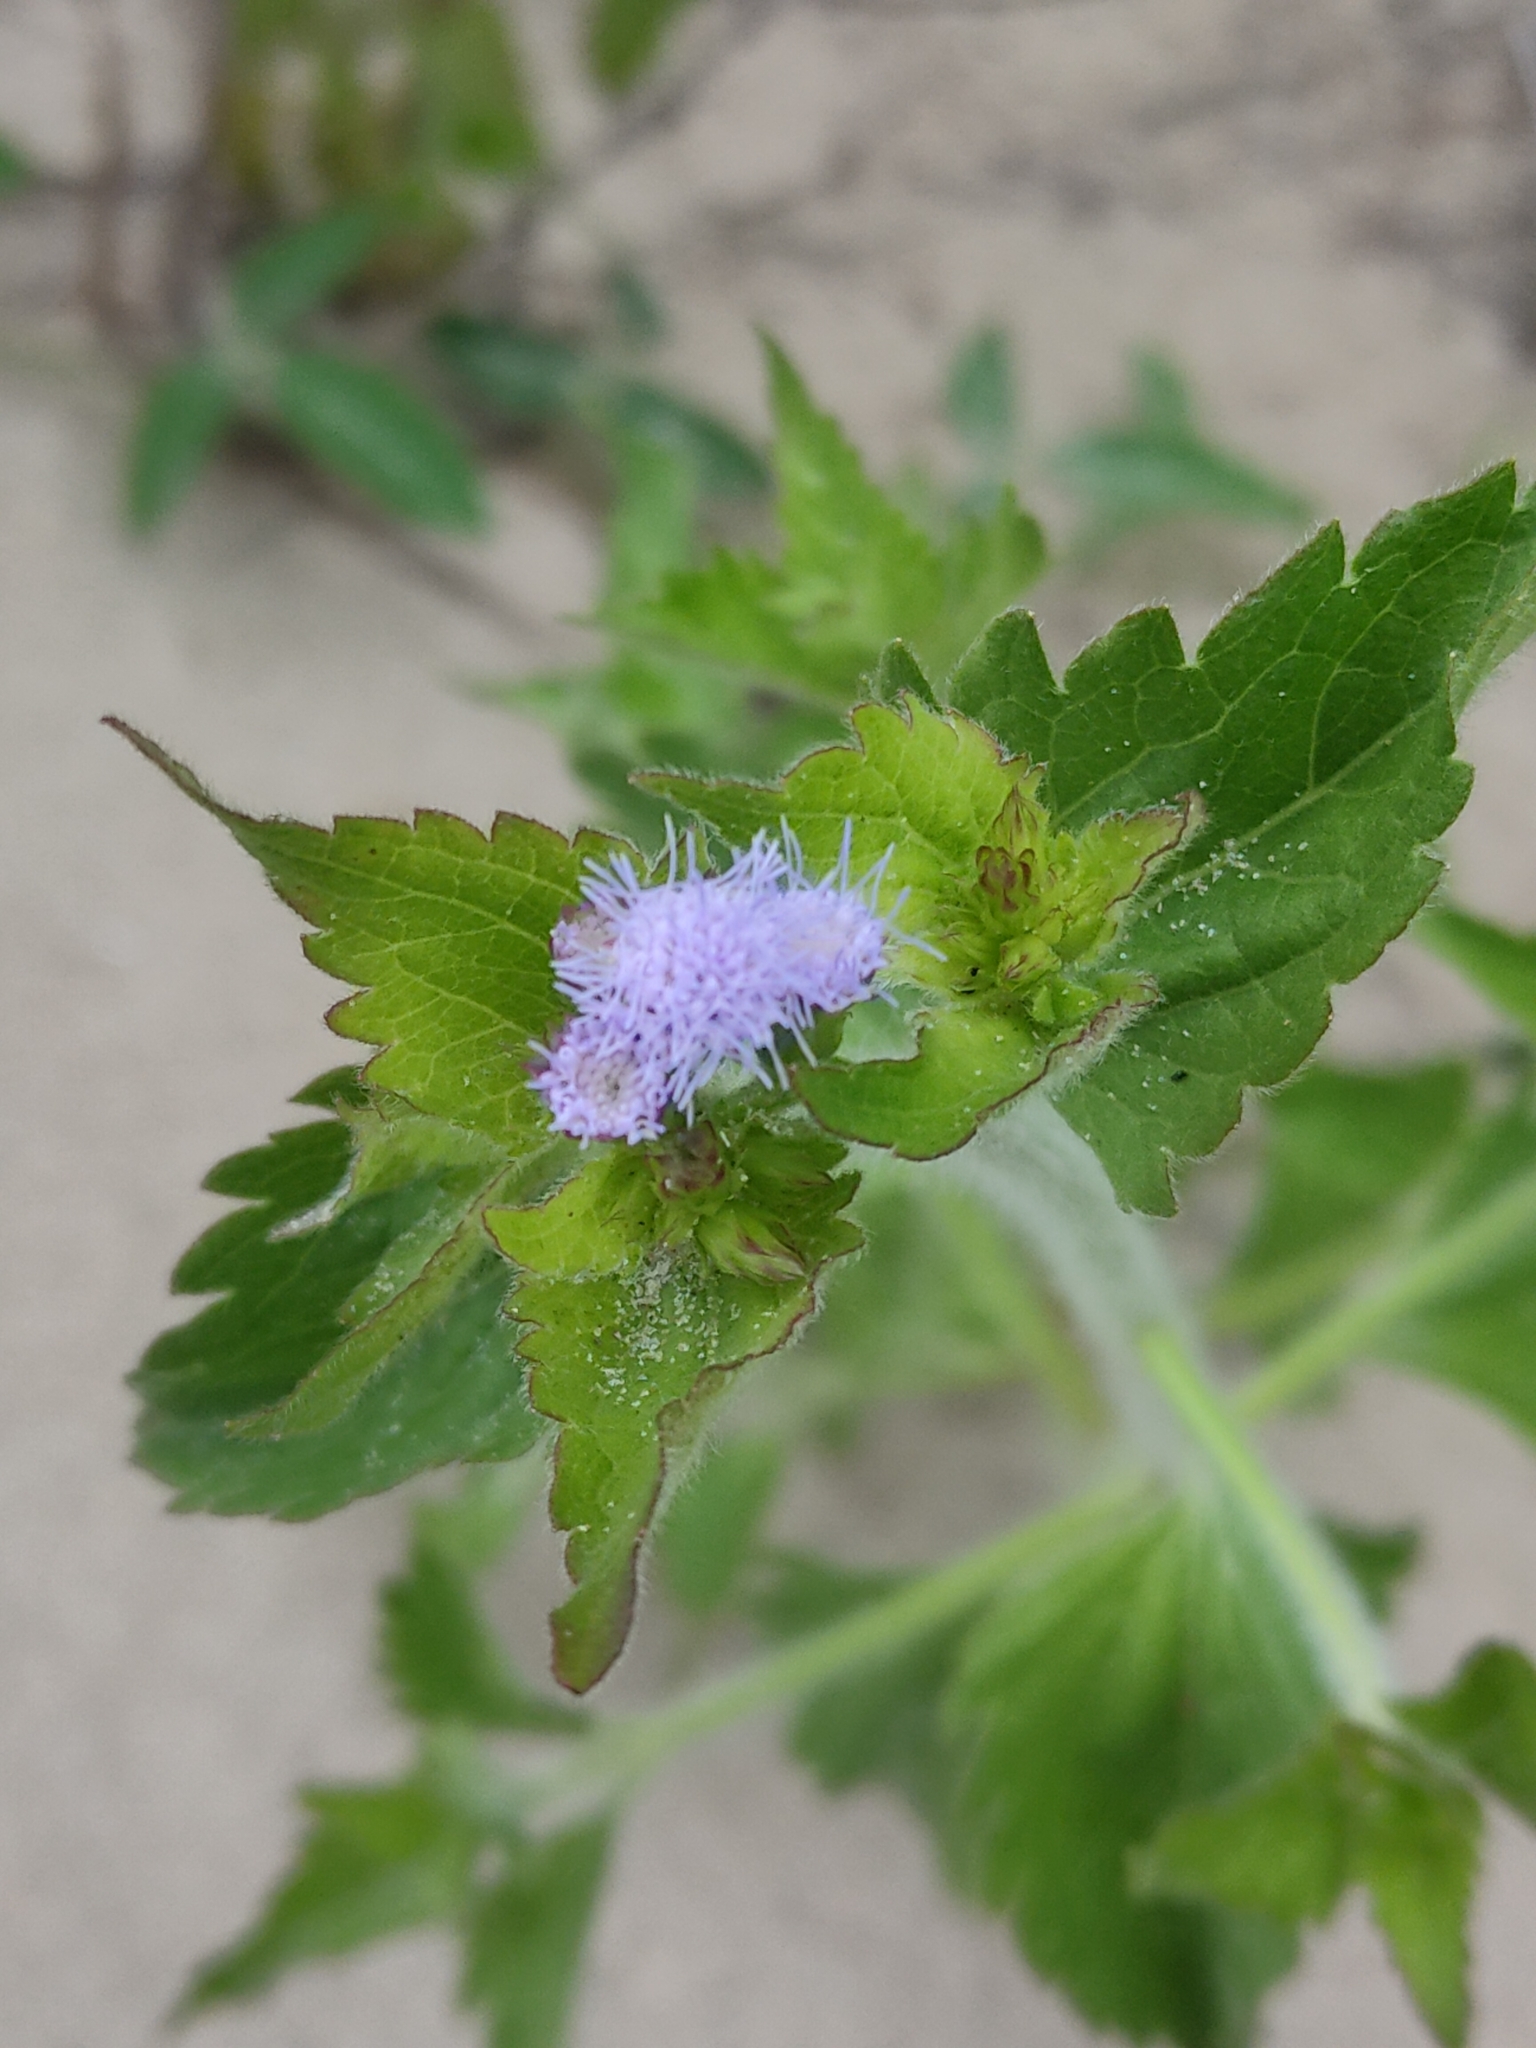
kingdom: Plantae
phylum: Tracheophyta
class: Magnoliopsida
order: Asterales
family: Asteraceae
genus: Praxelis
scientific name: Praxelis clematidea
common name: Praxelis
